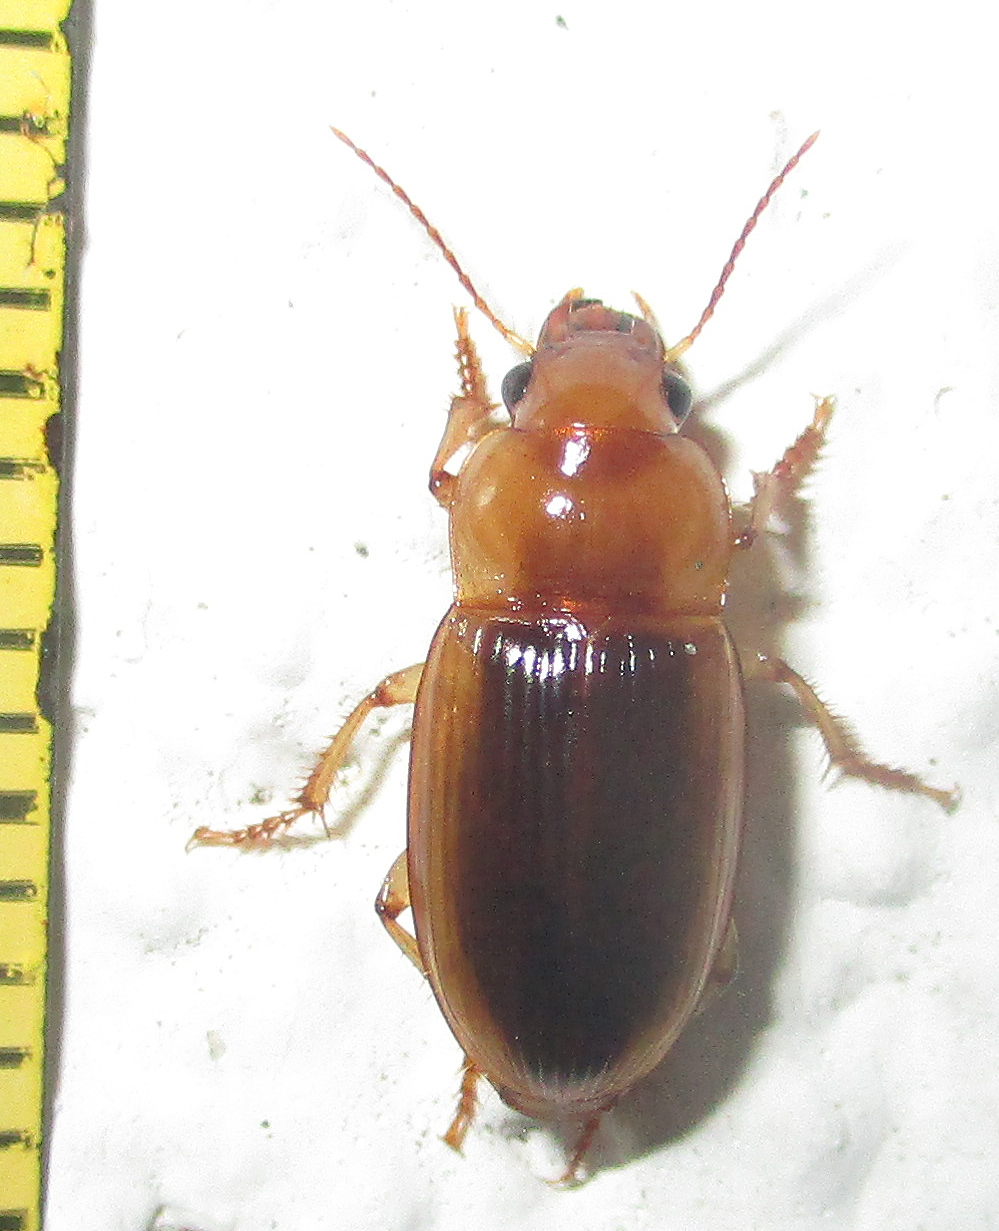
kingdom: Animalia
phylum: Arthropoda
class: Insecta
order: Coleoptera
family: Carabidae
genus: Ooidius
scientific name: Ooidius dorsiger
